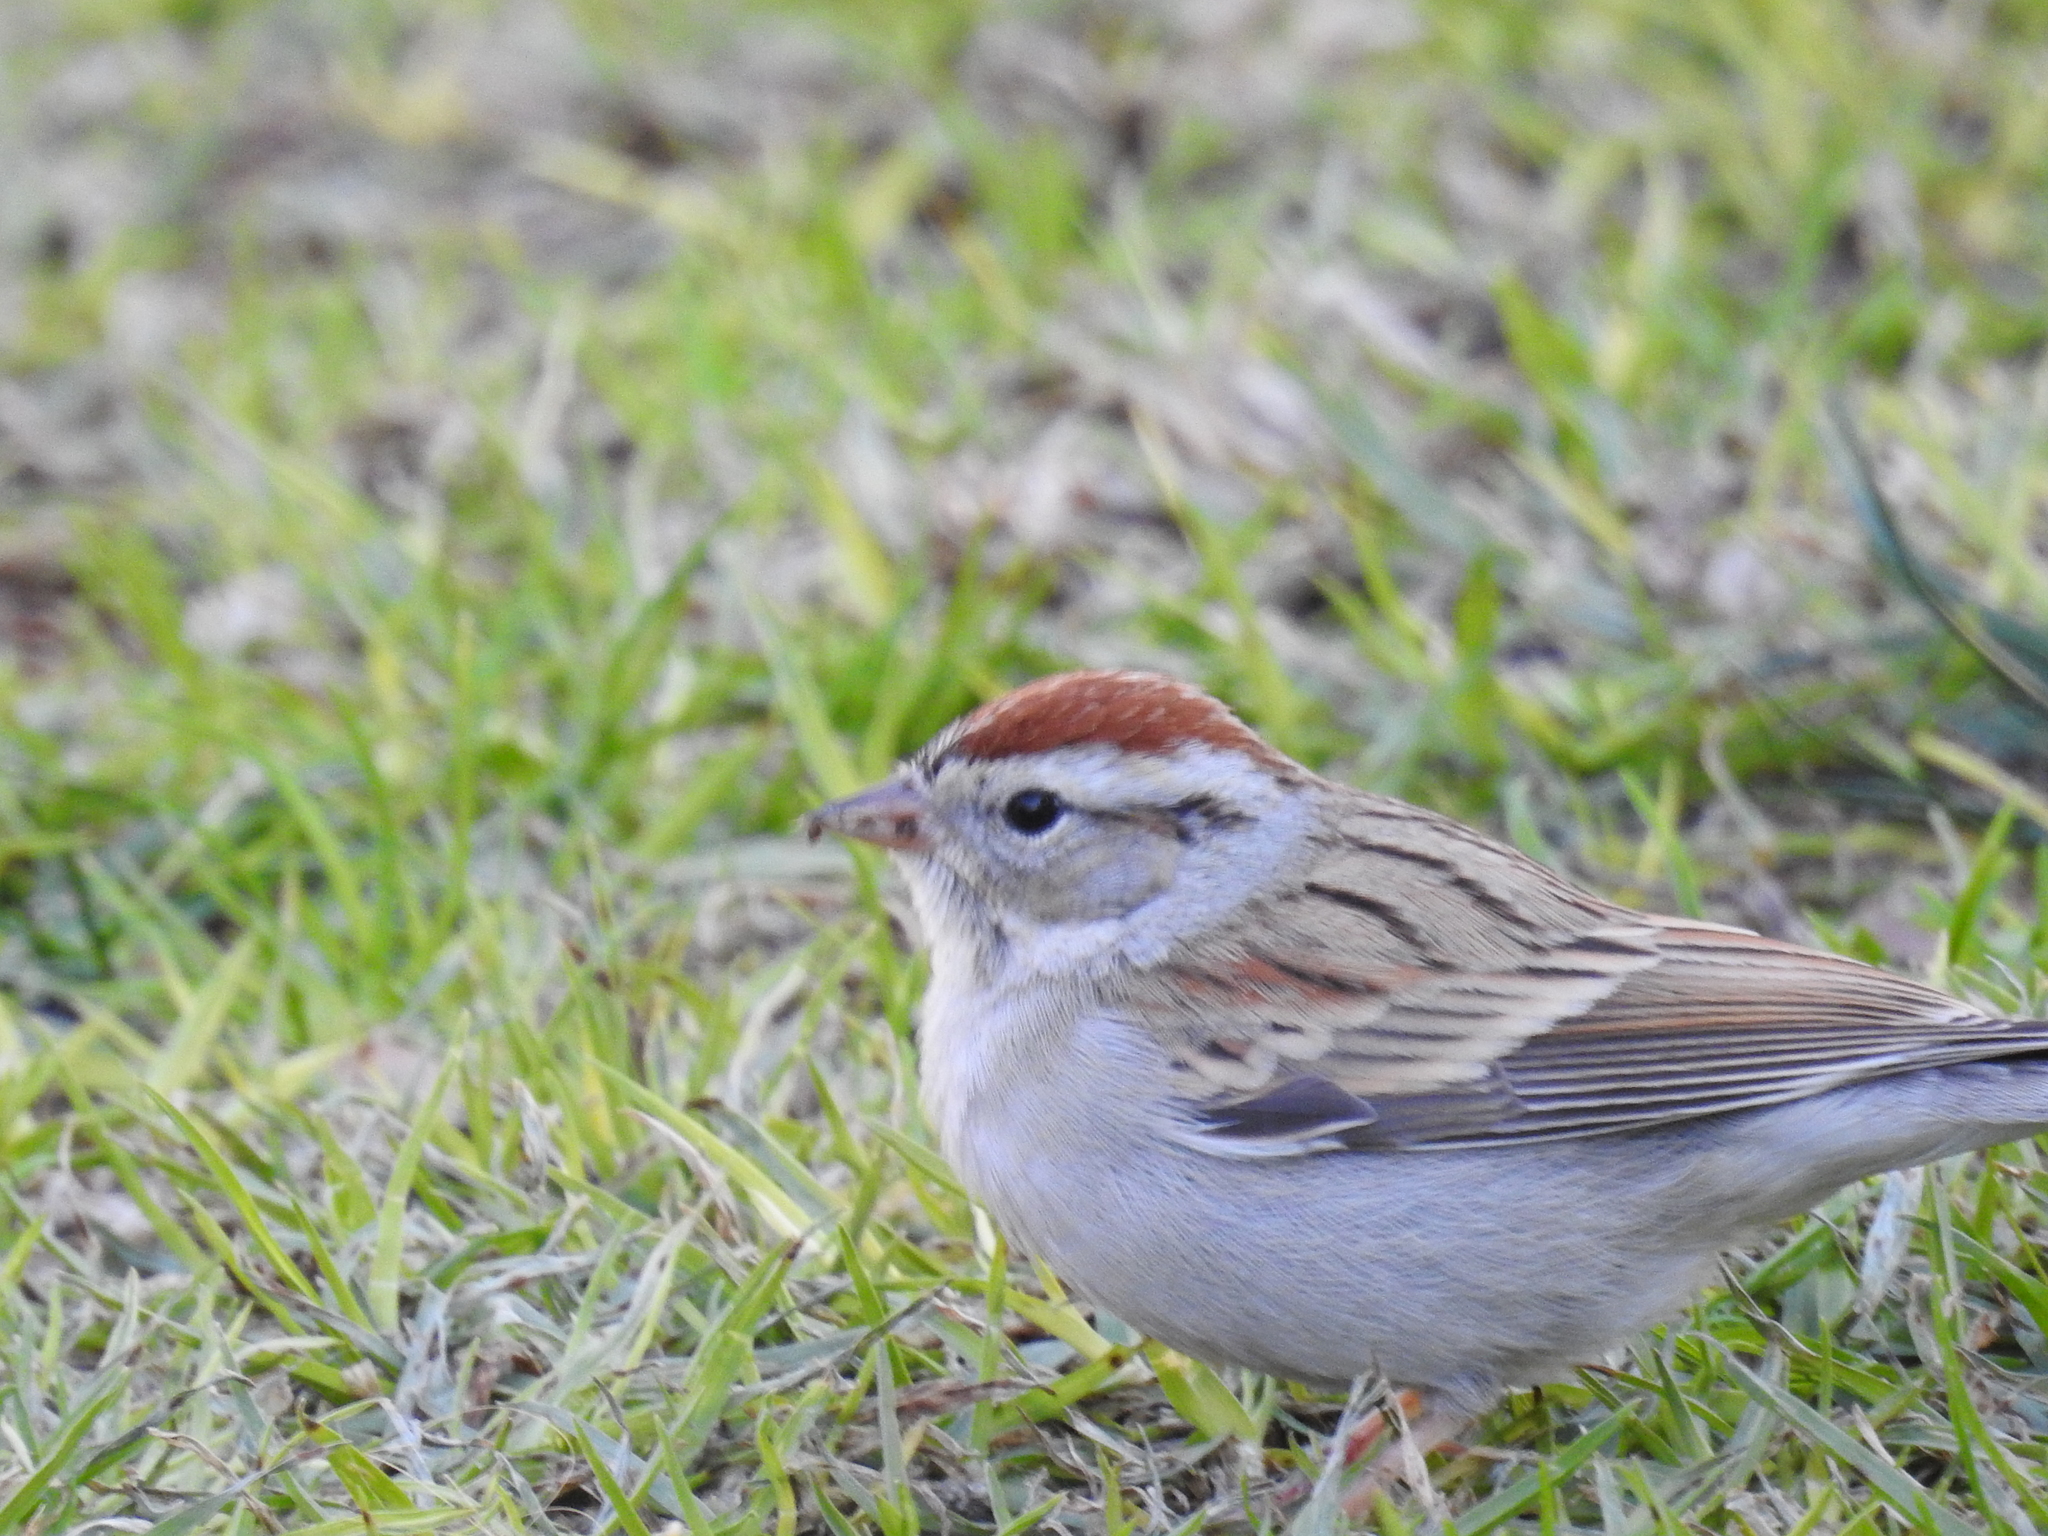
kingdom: Animalia
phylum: Chordata
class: Aves
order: Passeriformes
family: Passerellidae
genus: Spizella
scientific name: Spizella passerina
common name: Chipping sparrow
